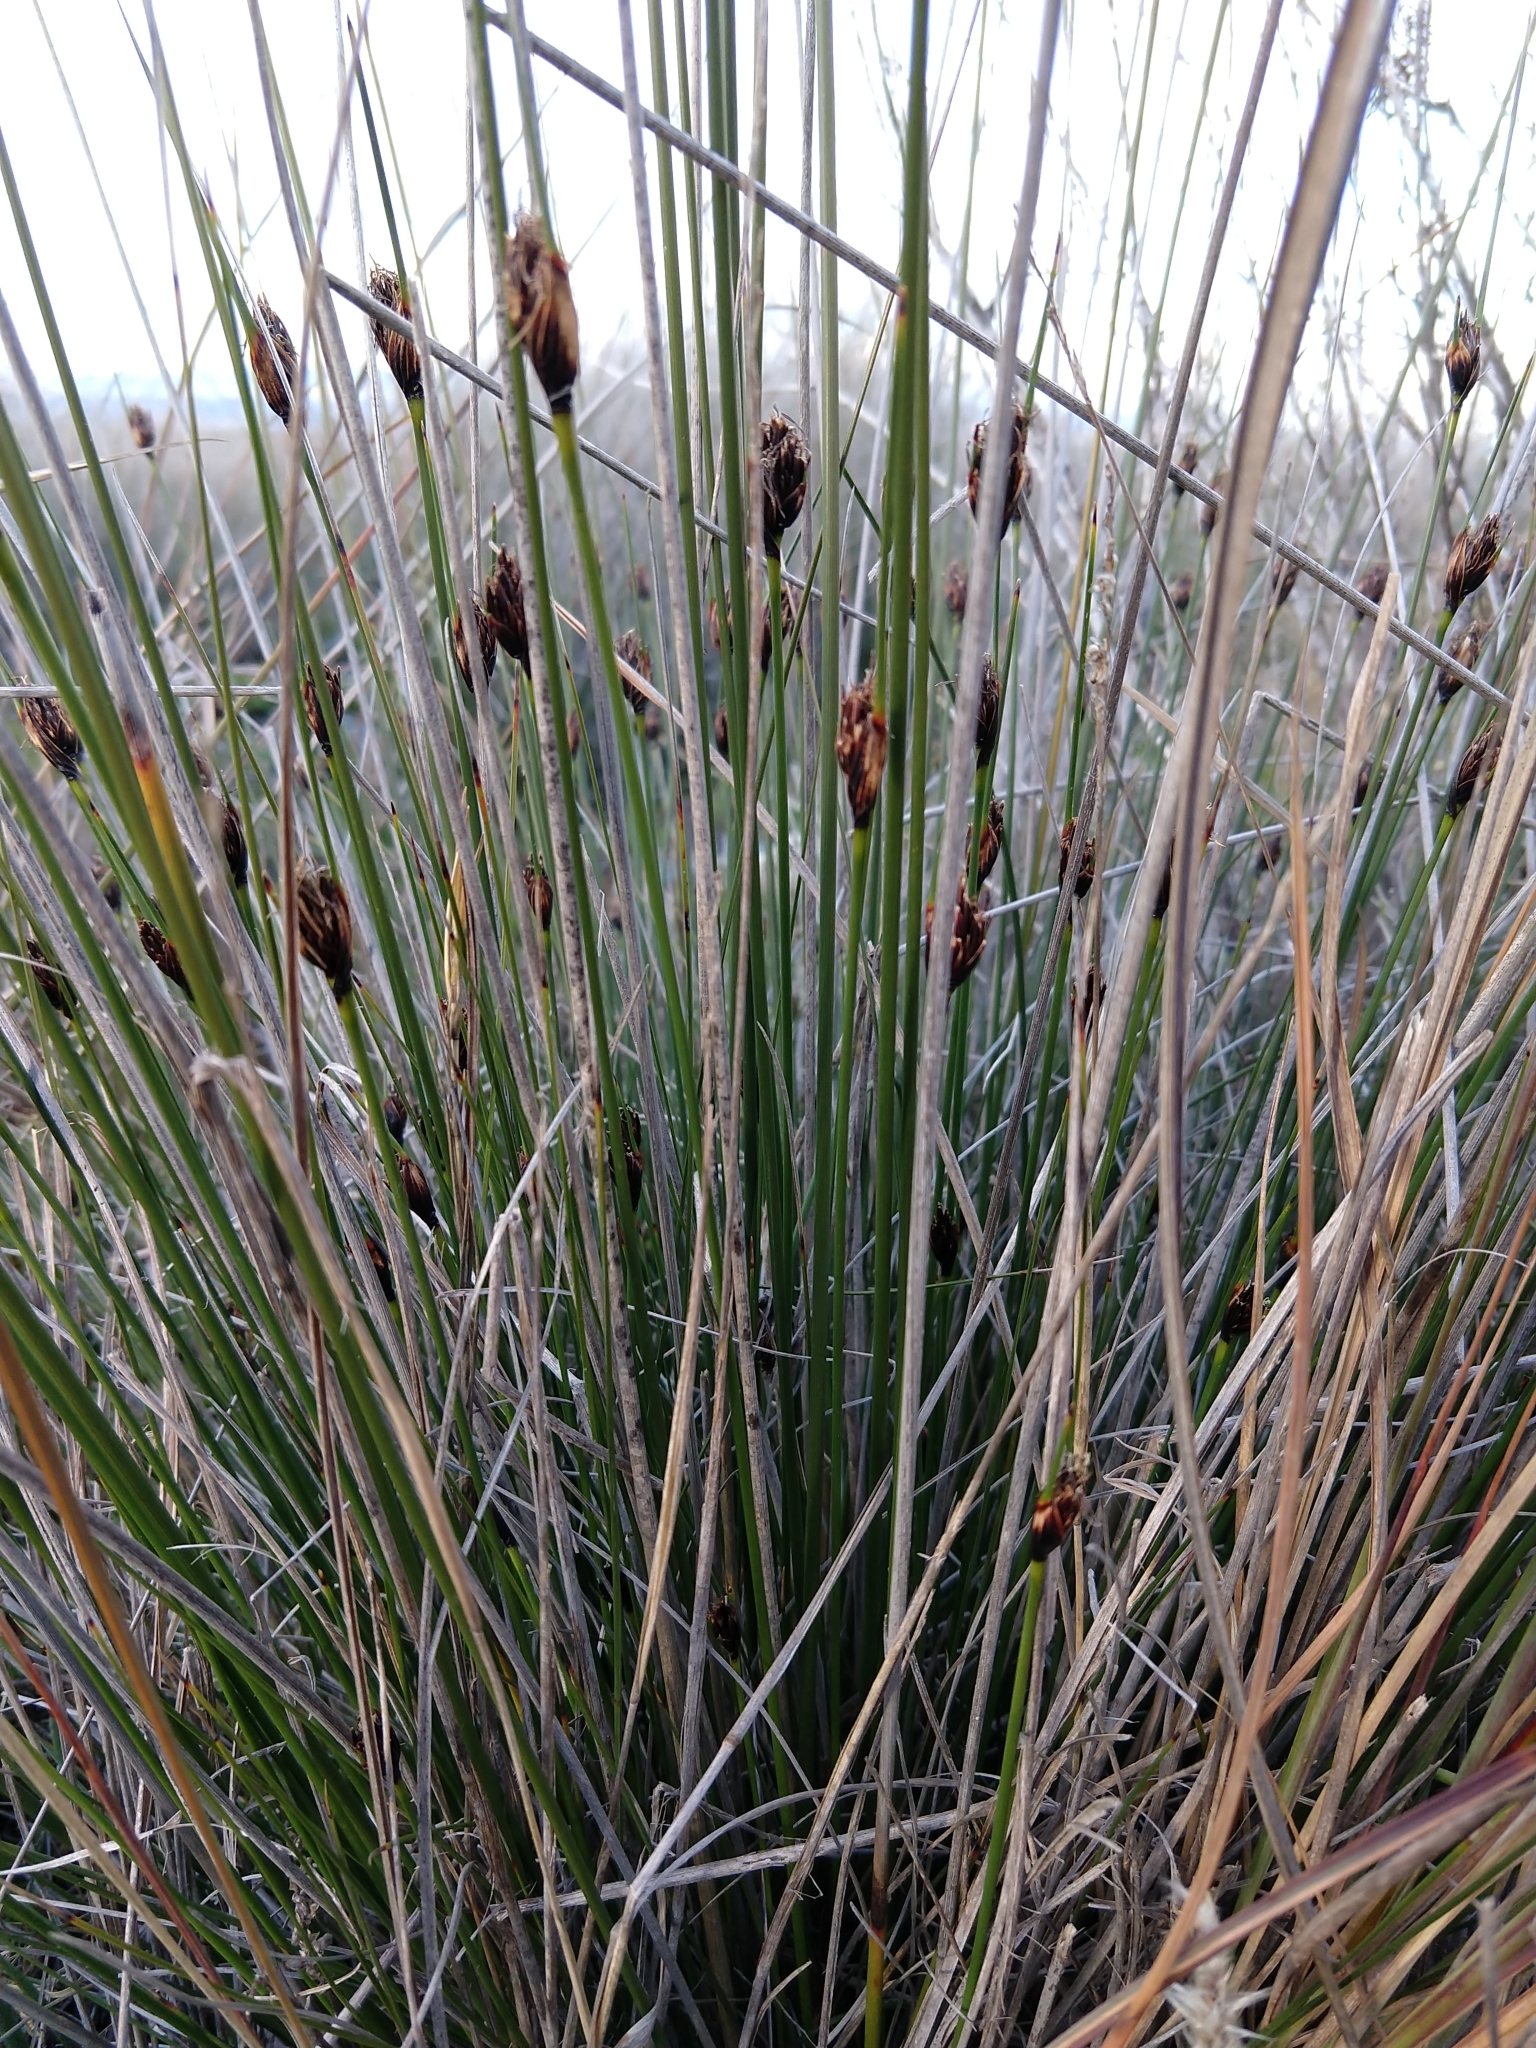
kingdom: Plantae
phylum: Tracheophyta
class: Liliopsida
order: Poales
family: Cyperaceae
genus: Schoenus
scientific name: Schoenus nigricans
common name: Black bog-rush
